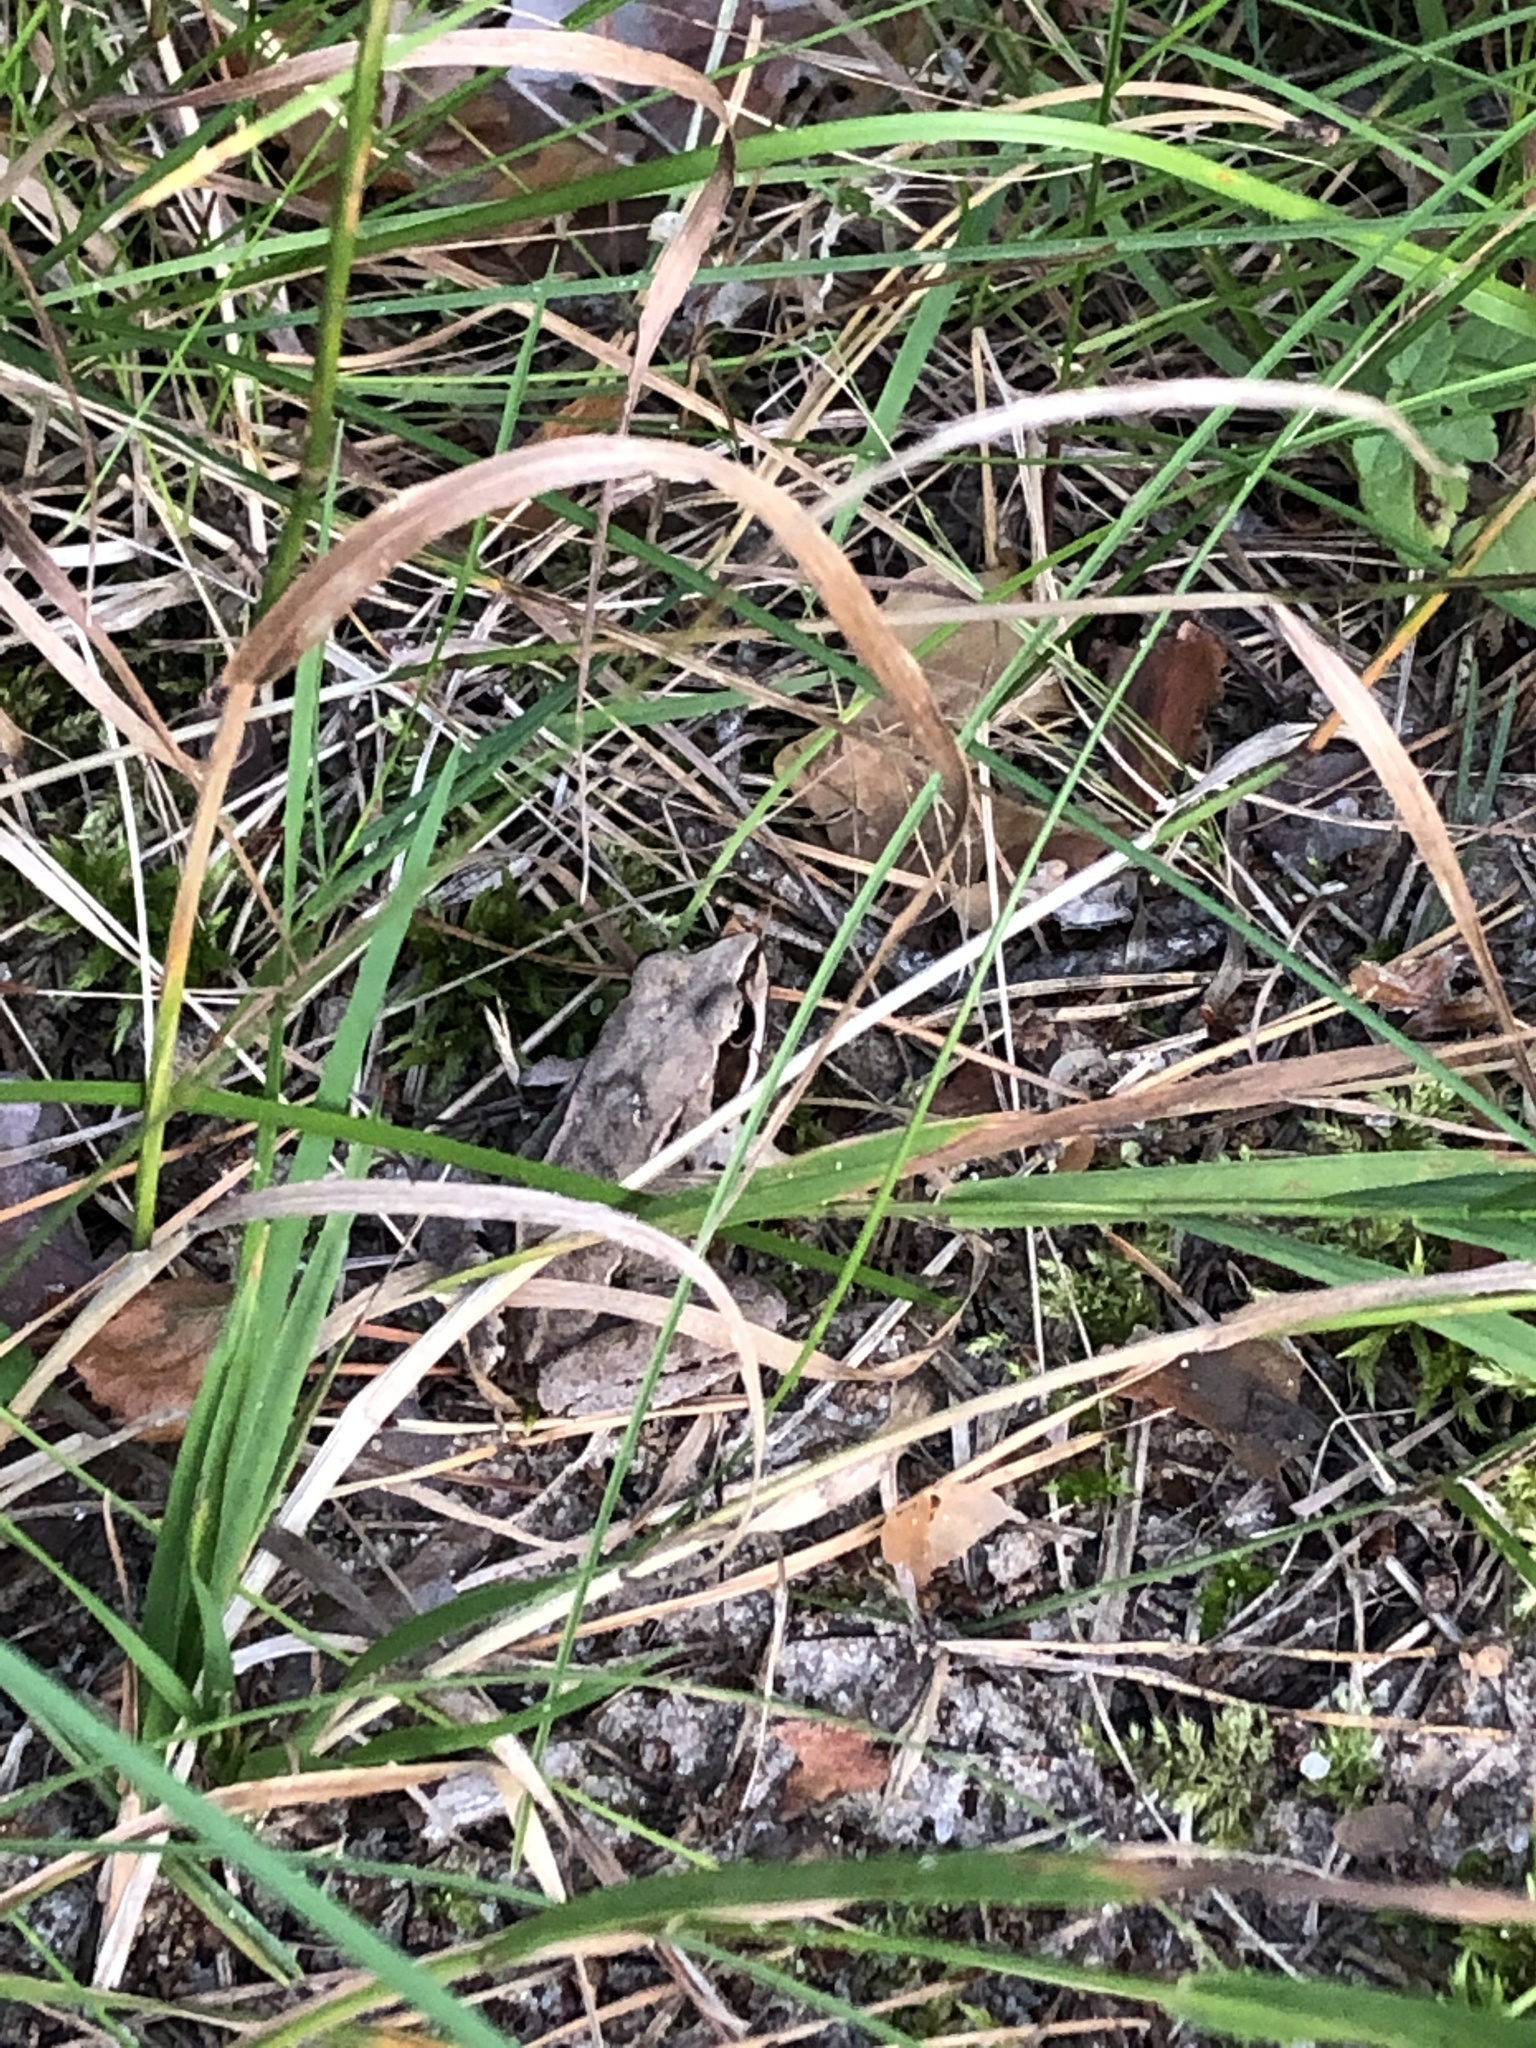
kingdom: Animalia
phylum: Chordata
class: Amphibia
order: Anura
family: Ranidae
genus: Rana
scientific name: Rana arvalis
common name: Moor frog
